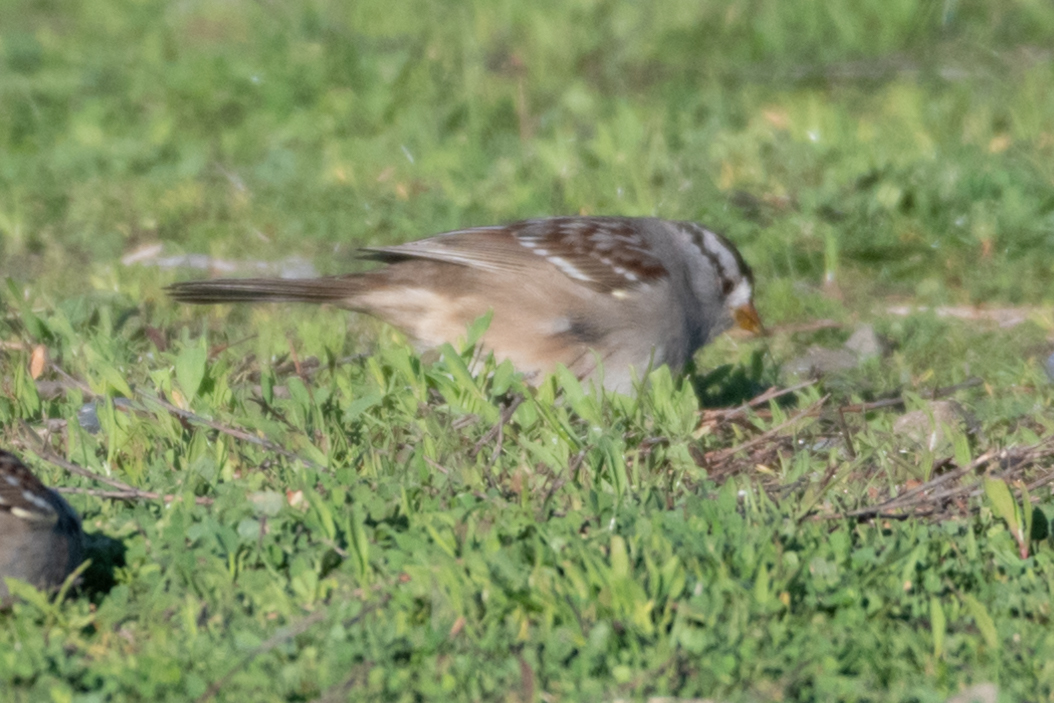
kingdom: Animalia
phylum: Chordata
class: Aves
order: Passeriformes
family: Passerellidae
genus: Zonotrichia
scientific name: Zonotrichia leucophrys
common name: White-crowned sparrow
